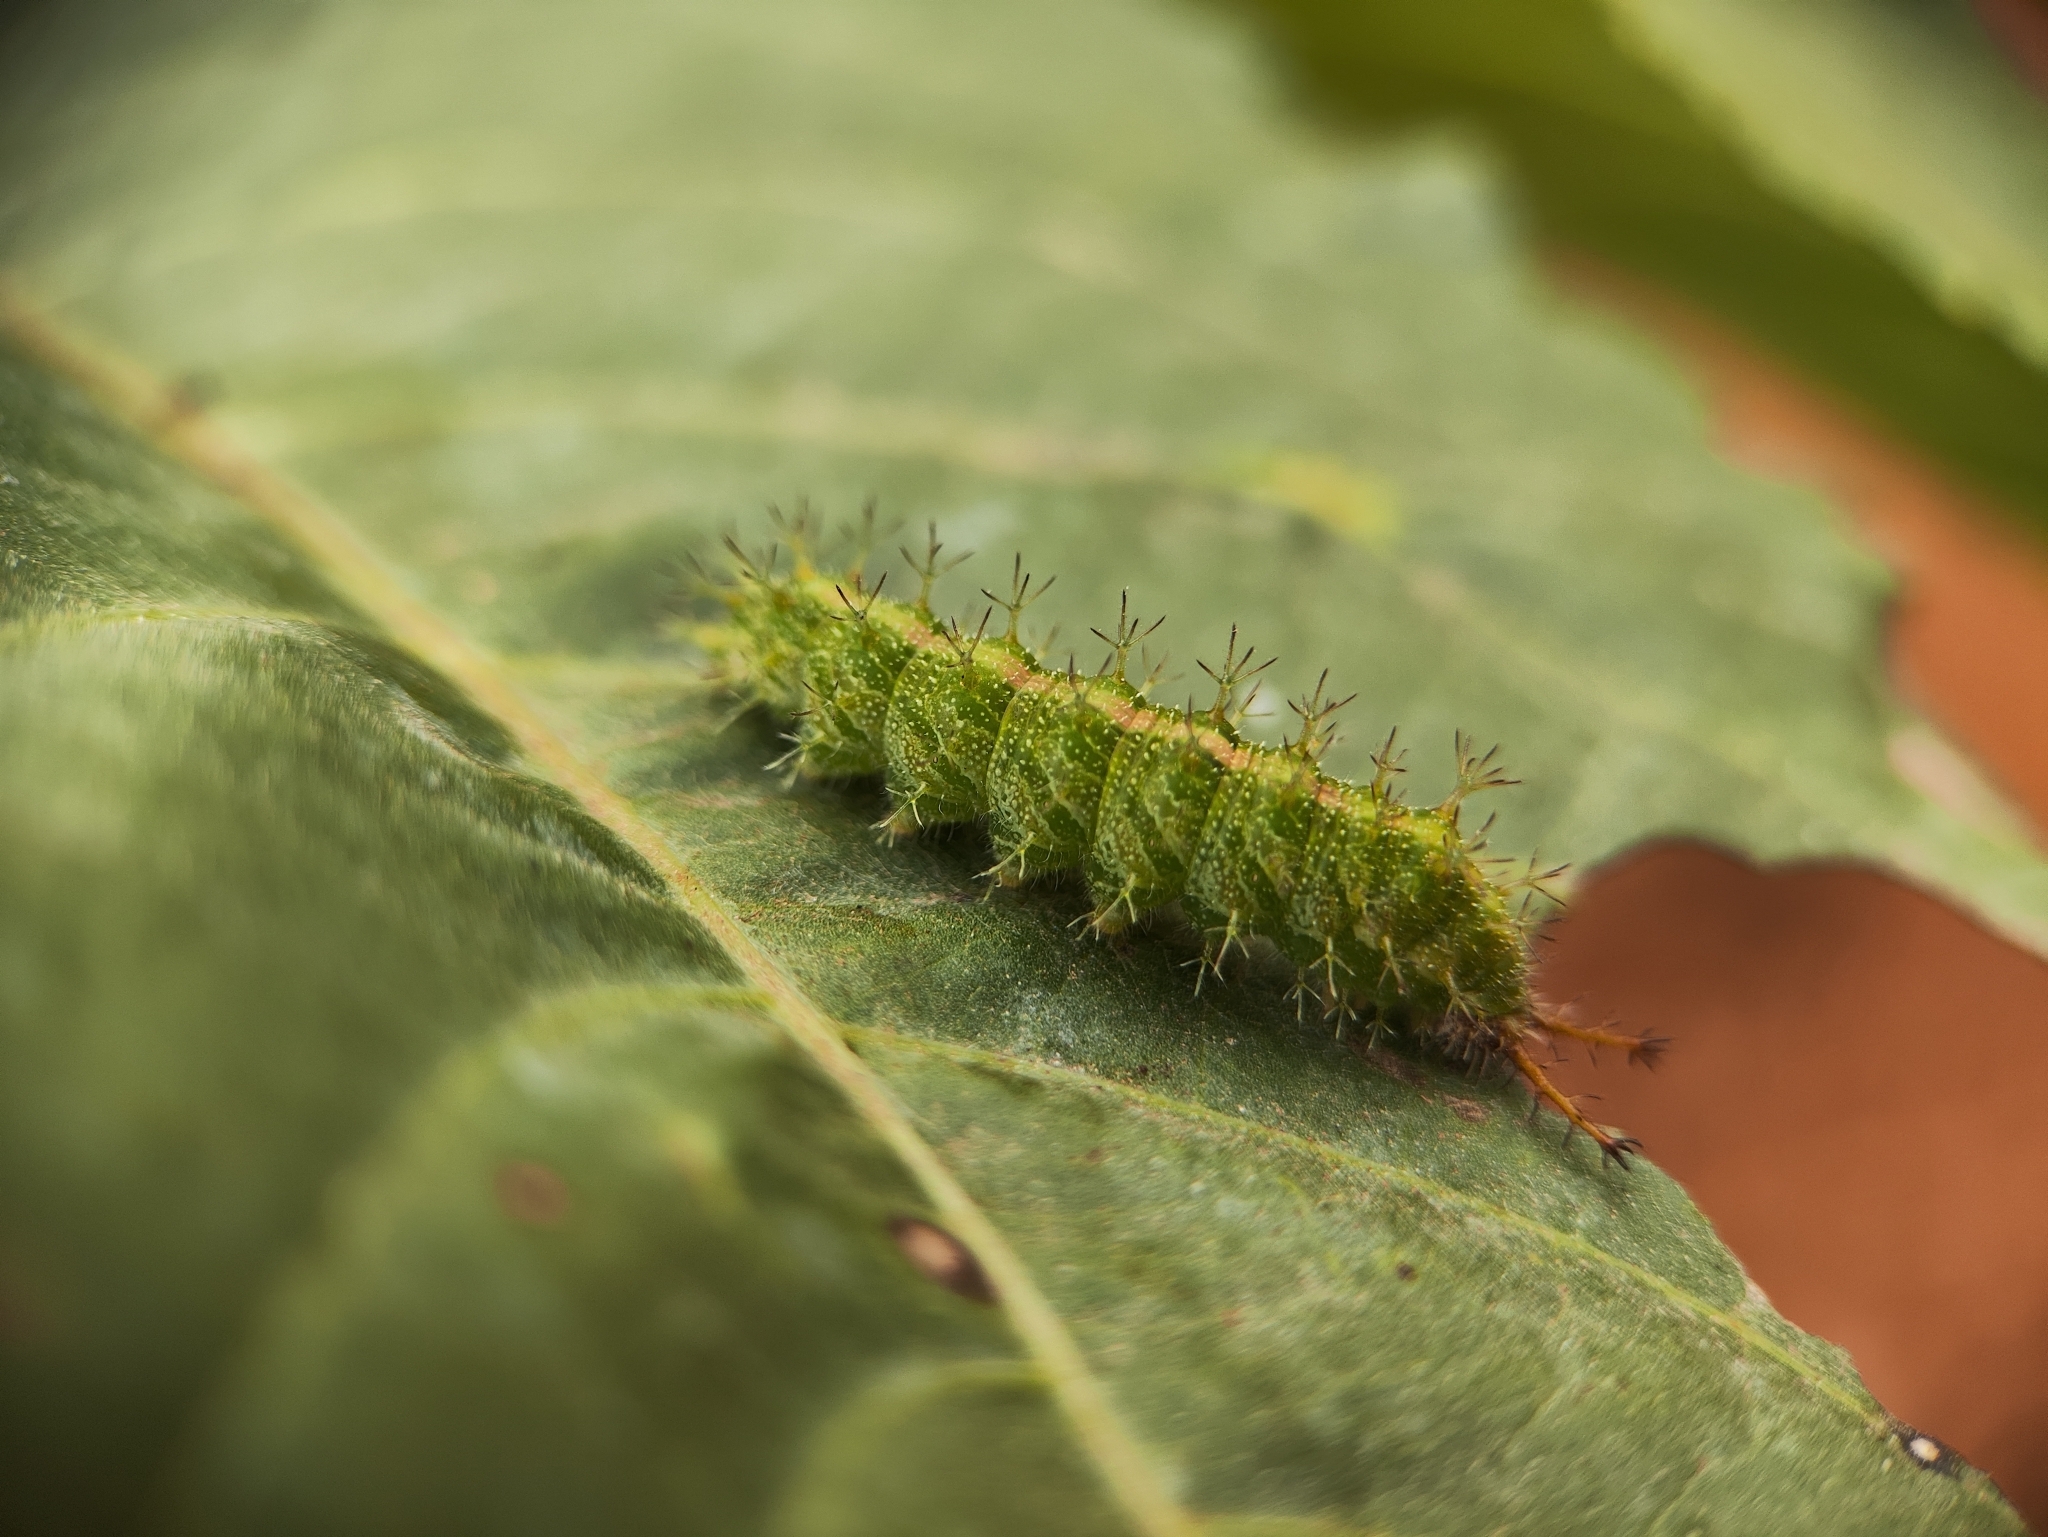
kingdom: Animalia
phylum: Arthropoda
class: Insecta
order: Lepidoptera
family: Nymphalidae
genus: Ariadne
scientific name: Ariadne merione
